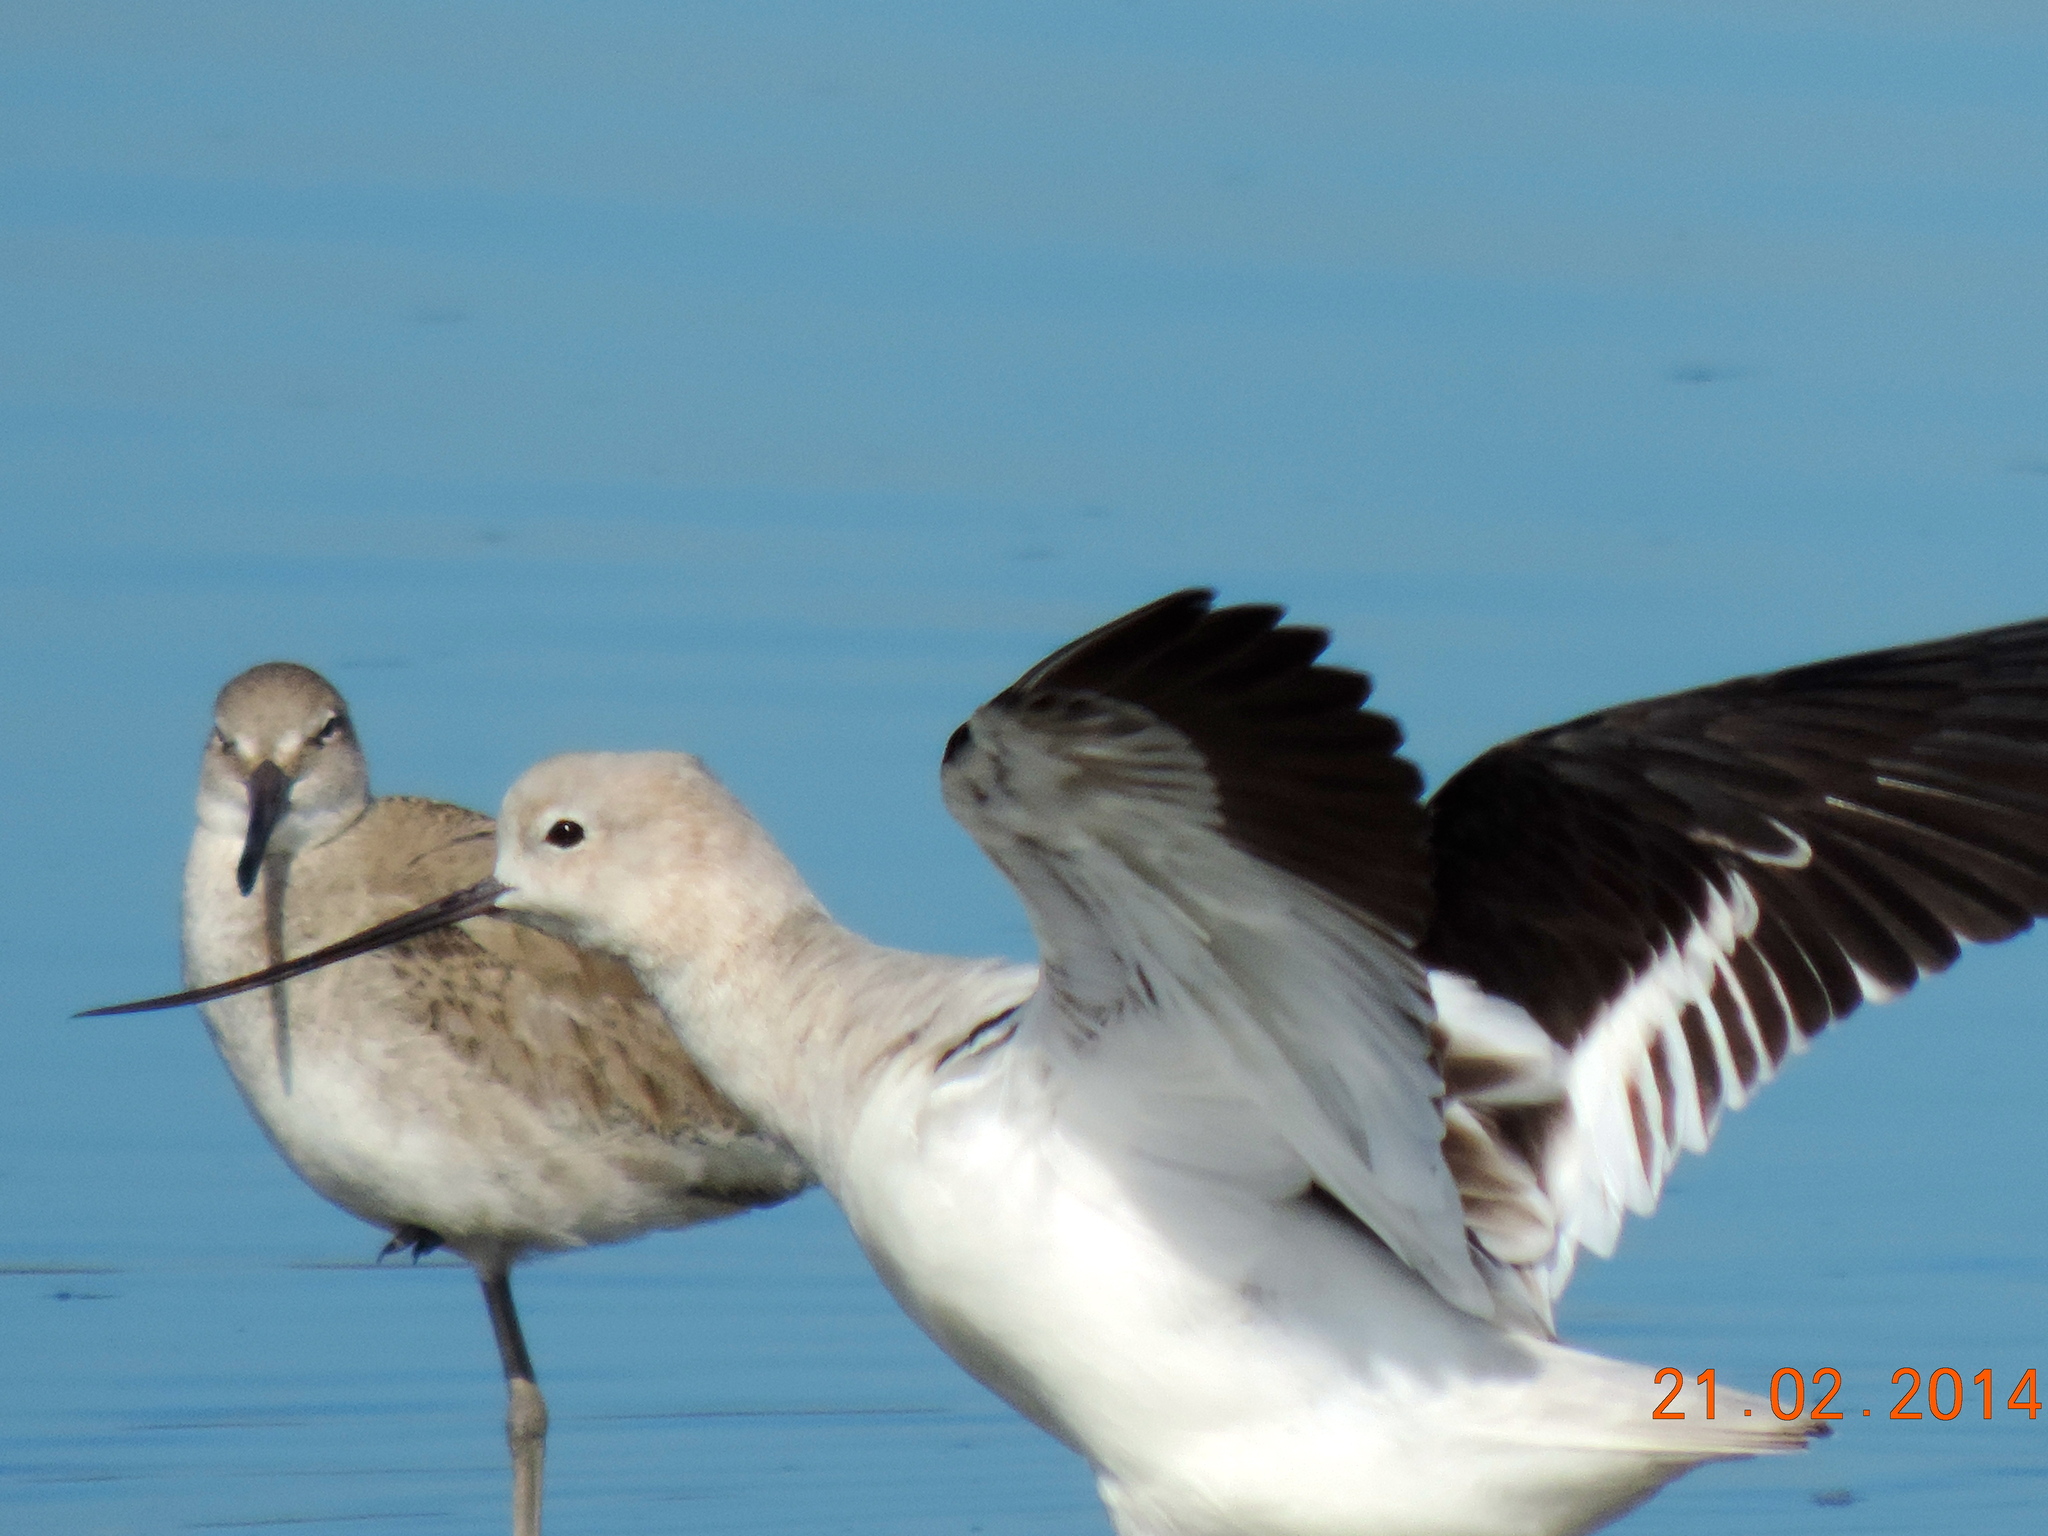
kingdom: Animalia
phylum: Chordata
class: Aves
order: Charadriiformes
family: Recurvirostridae
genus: Recurvirostra
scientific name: Recurvirostra americana
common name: American avocet
